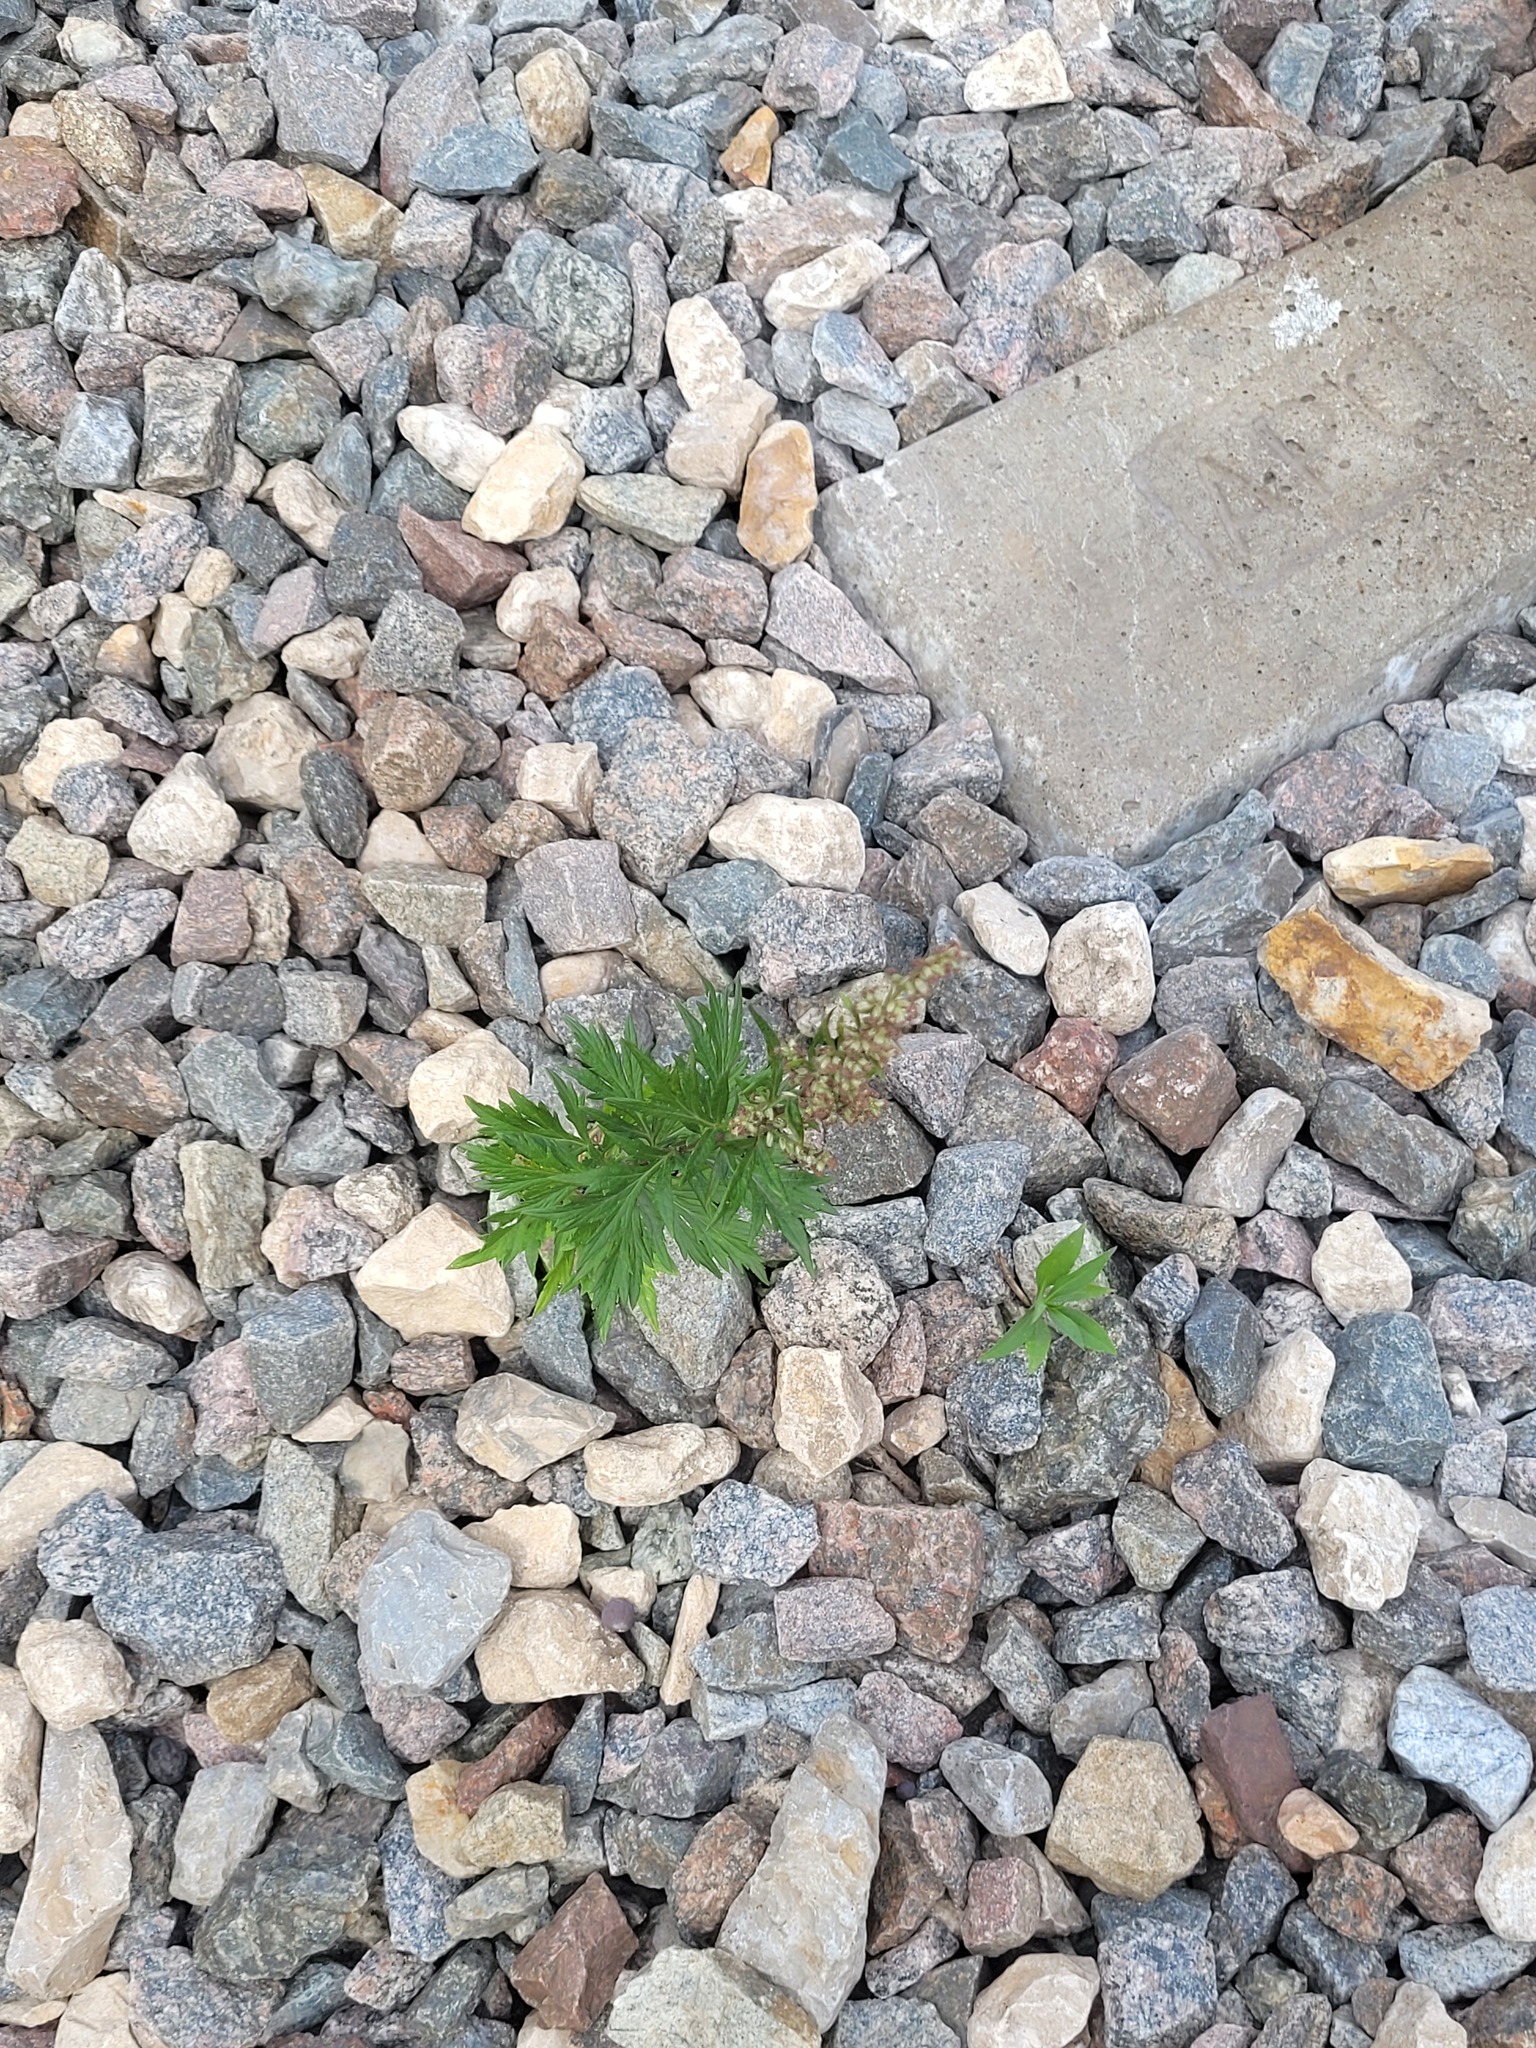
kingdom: Plantae
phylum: Tracheophyta
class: Magnoliopsida
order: Asterales
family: Asteraceae
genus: Artemisia
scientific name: Artemisia vulgaris
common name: Mugwort
